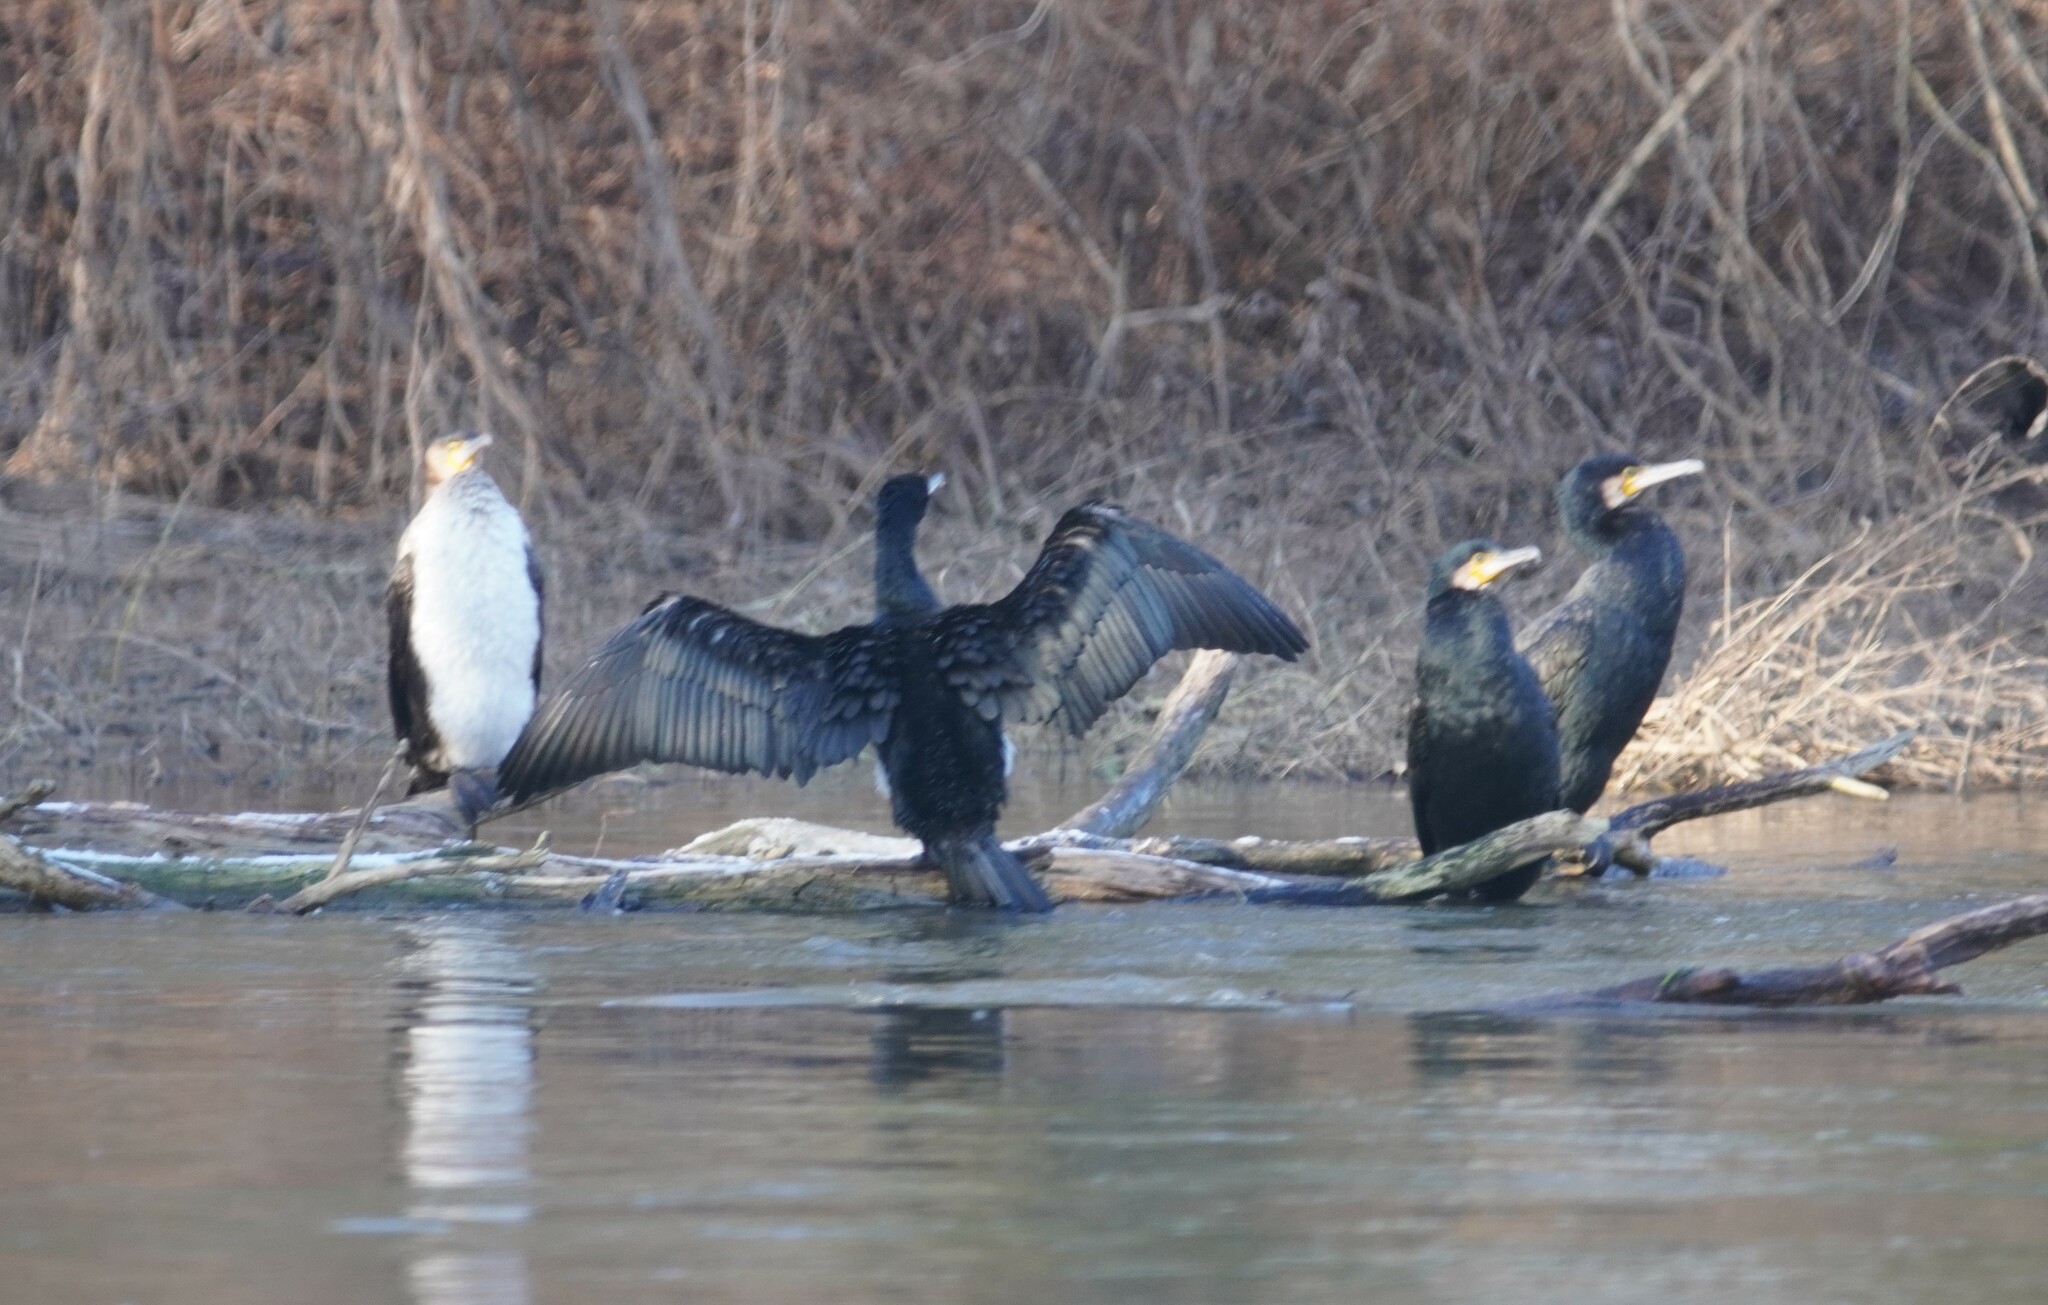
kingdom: Animalia
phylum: Chordata
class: Aves
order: Suliformes
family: Phalacrocoracidae
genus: Phalacrocorax
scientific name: Phalacrocorax carbo
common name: Great cormorant
